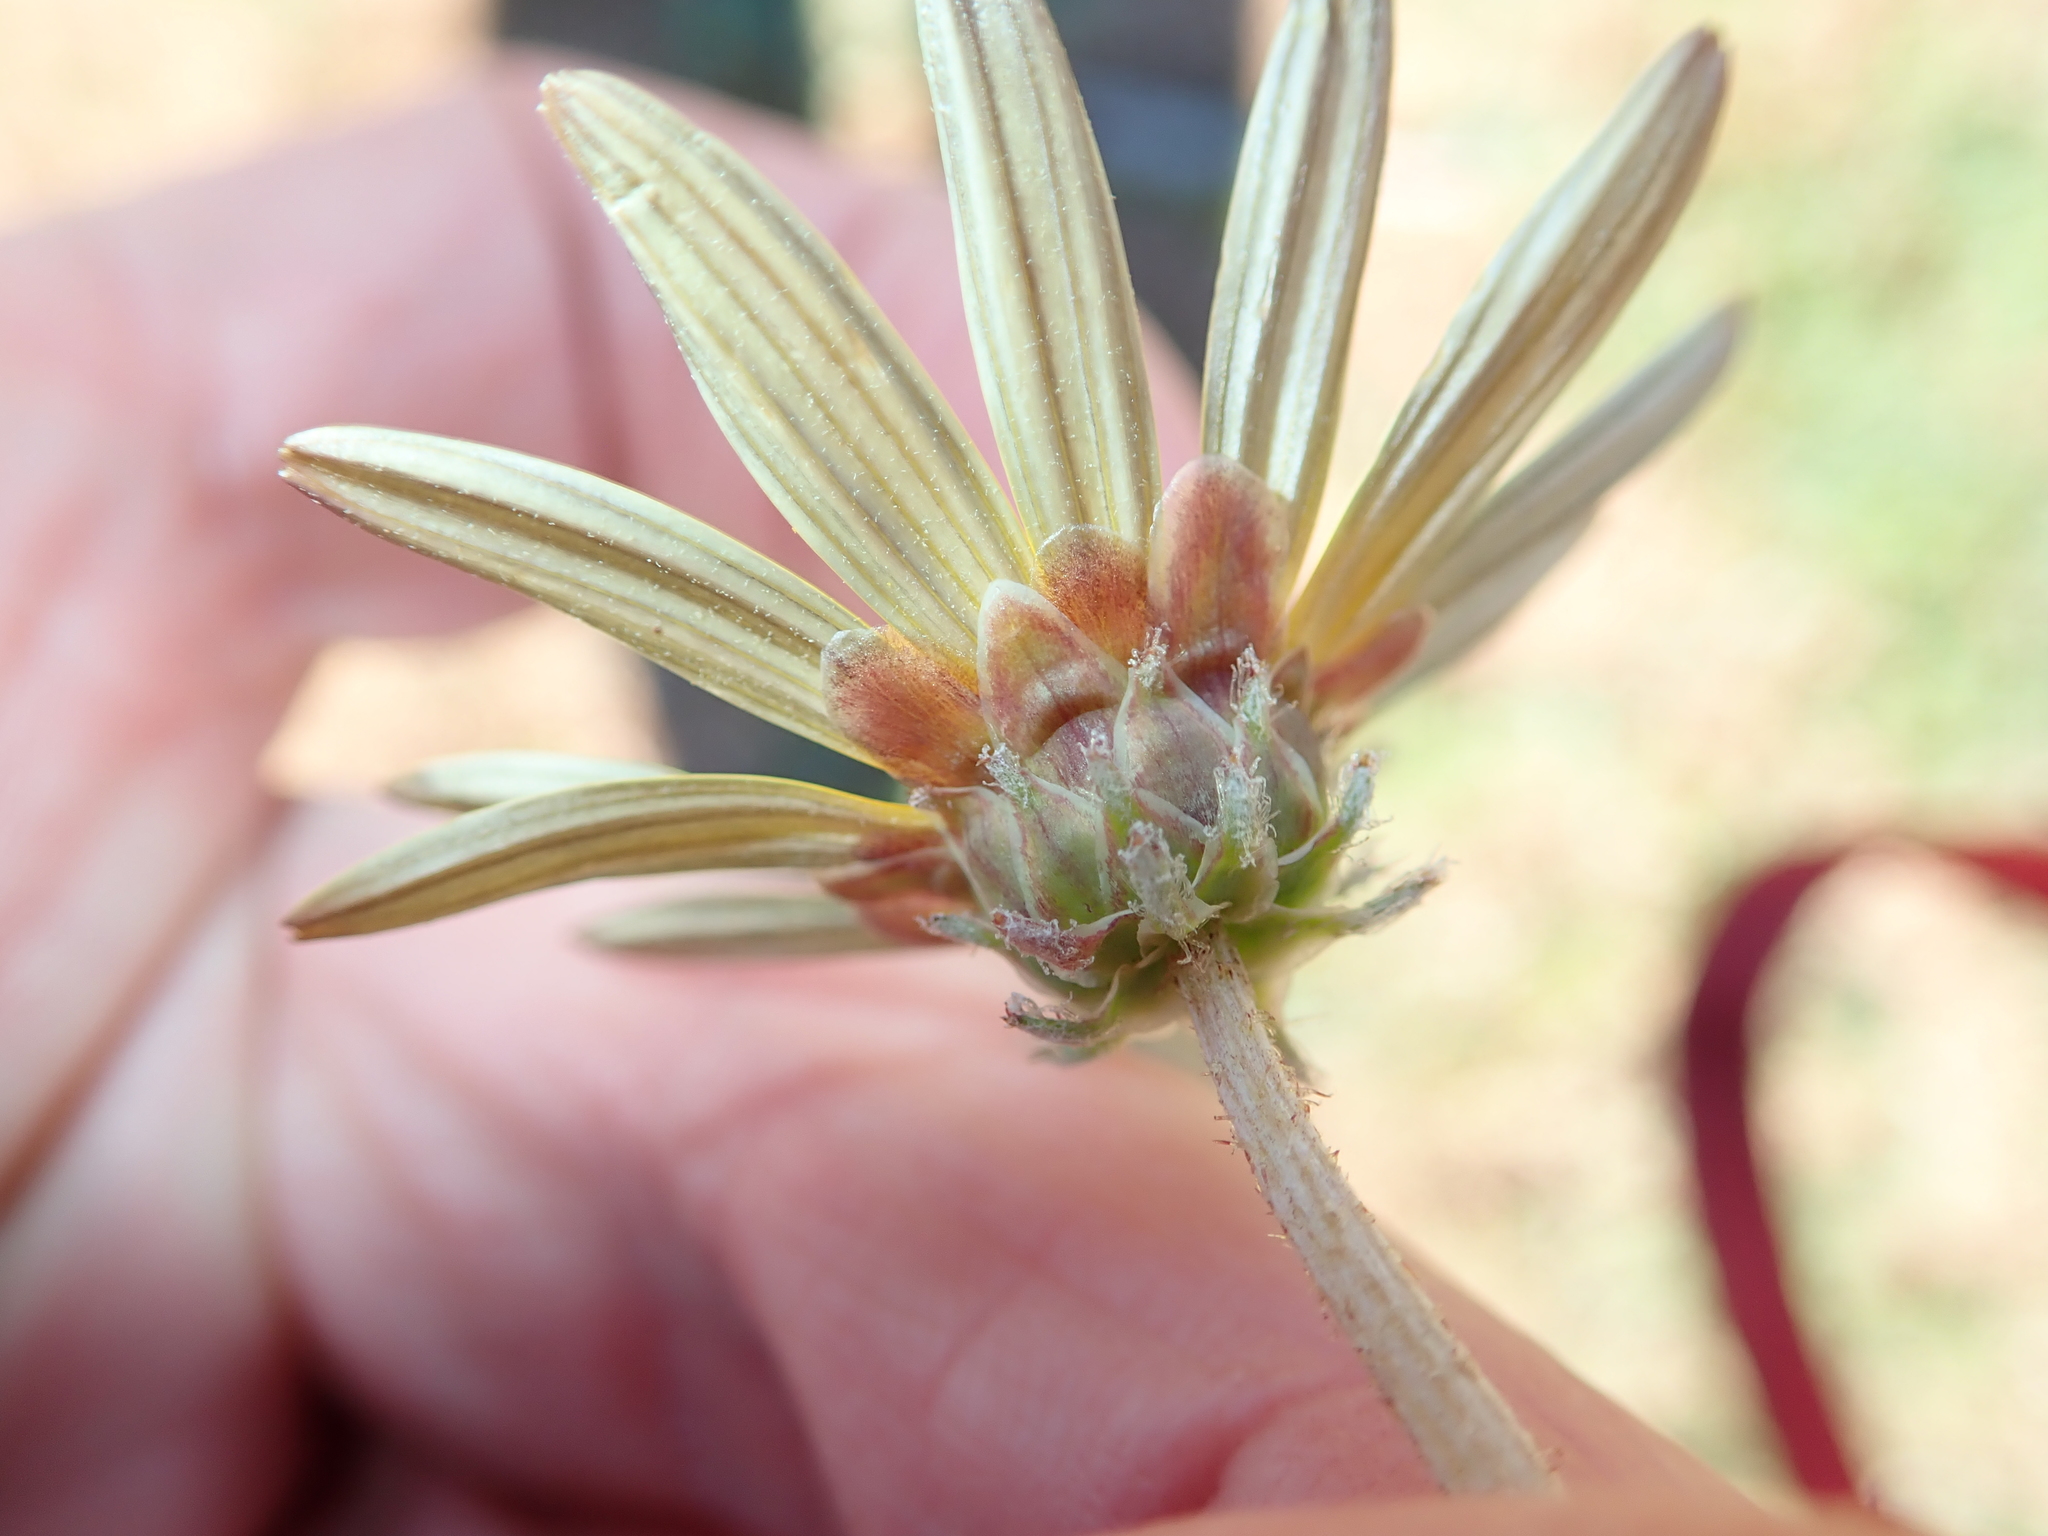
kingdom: Plantae
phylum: Tracheophyta
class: Magnoliopsida
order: Asterales
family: Asteraceae
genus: Arctotheca
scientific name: Arctotheca calendula
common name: Capeweed
